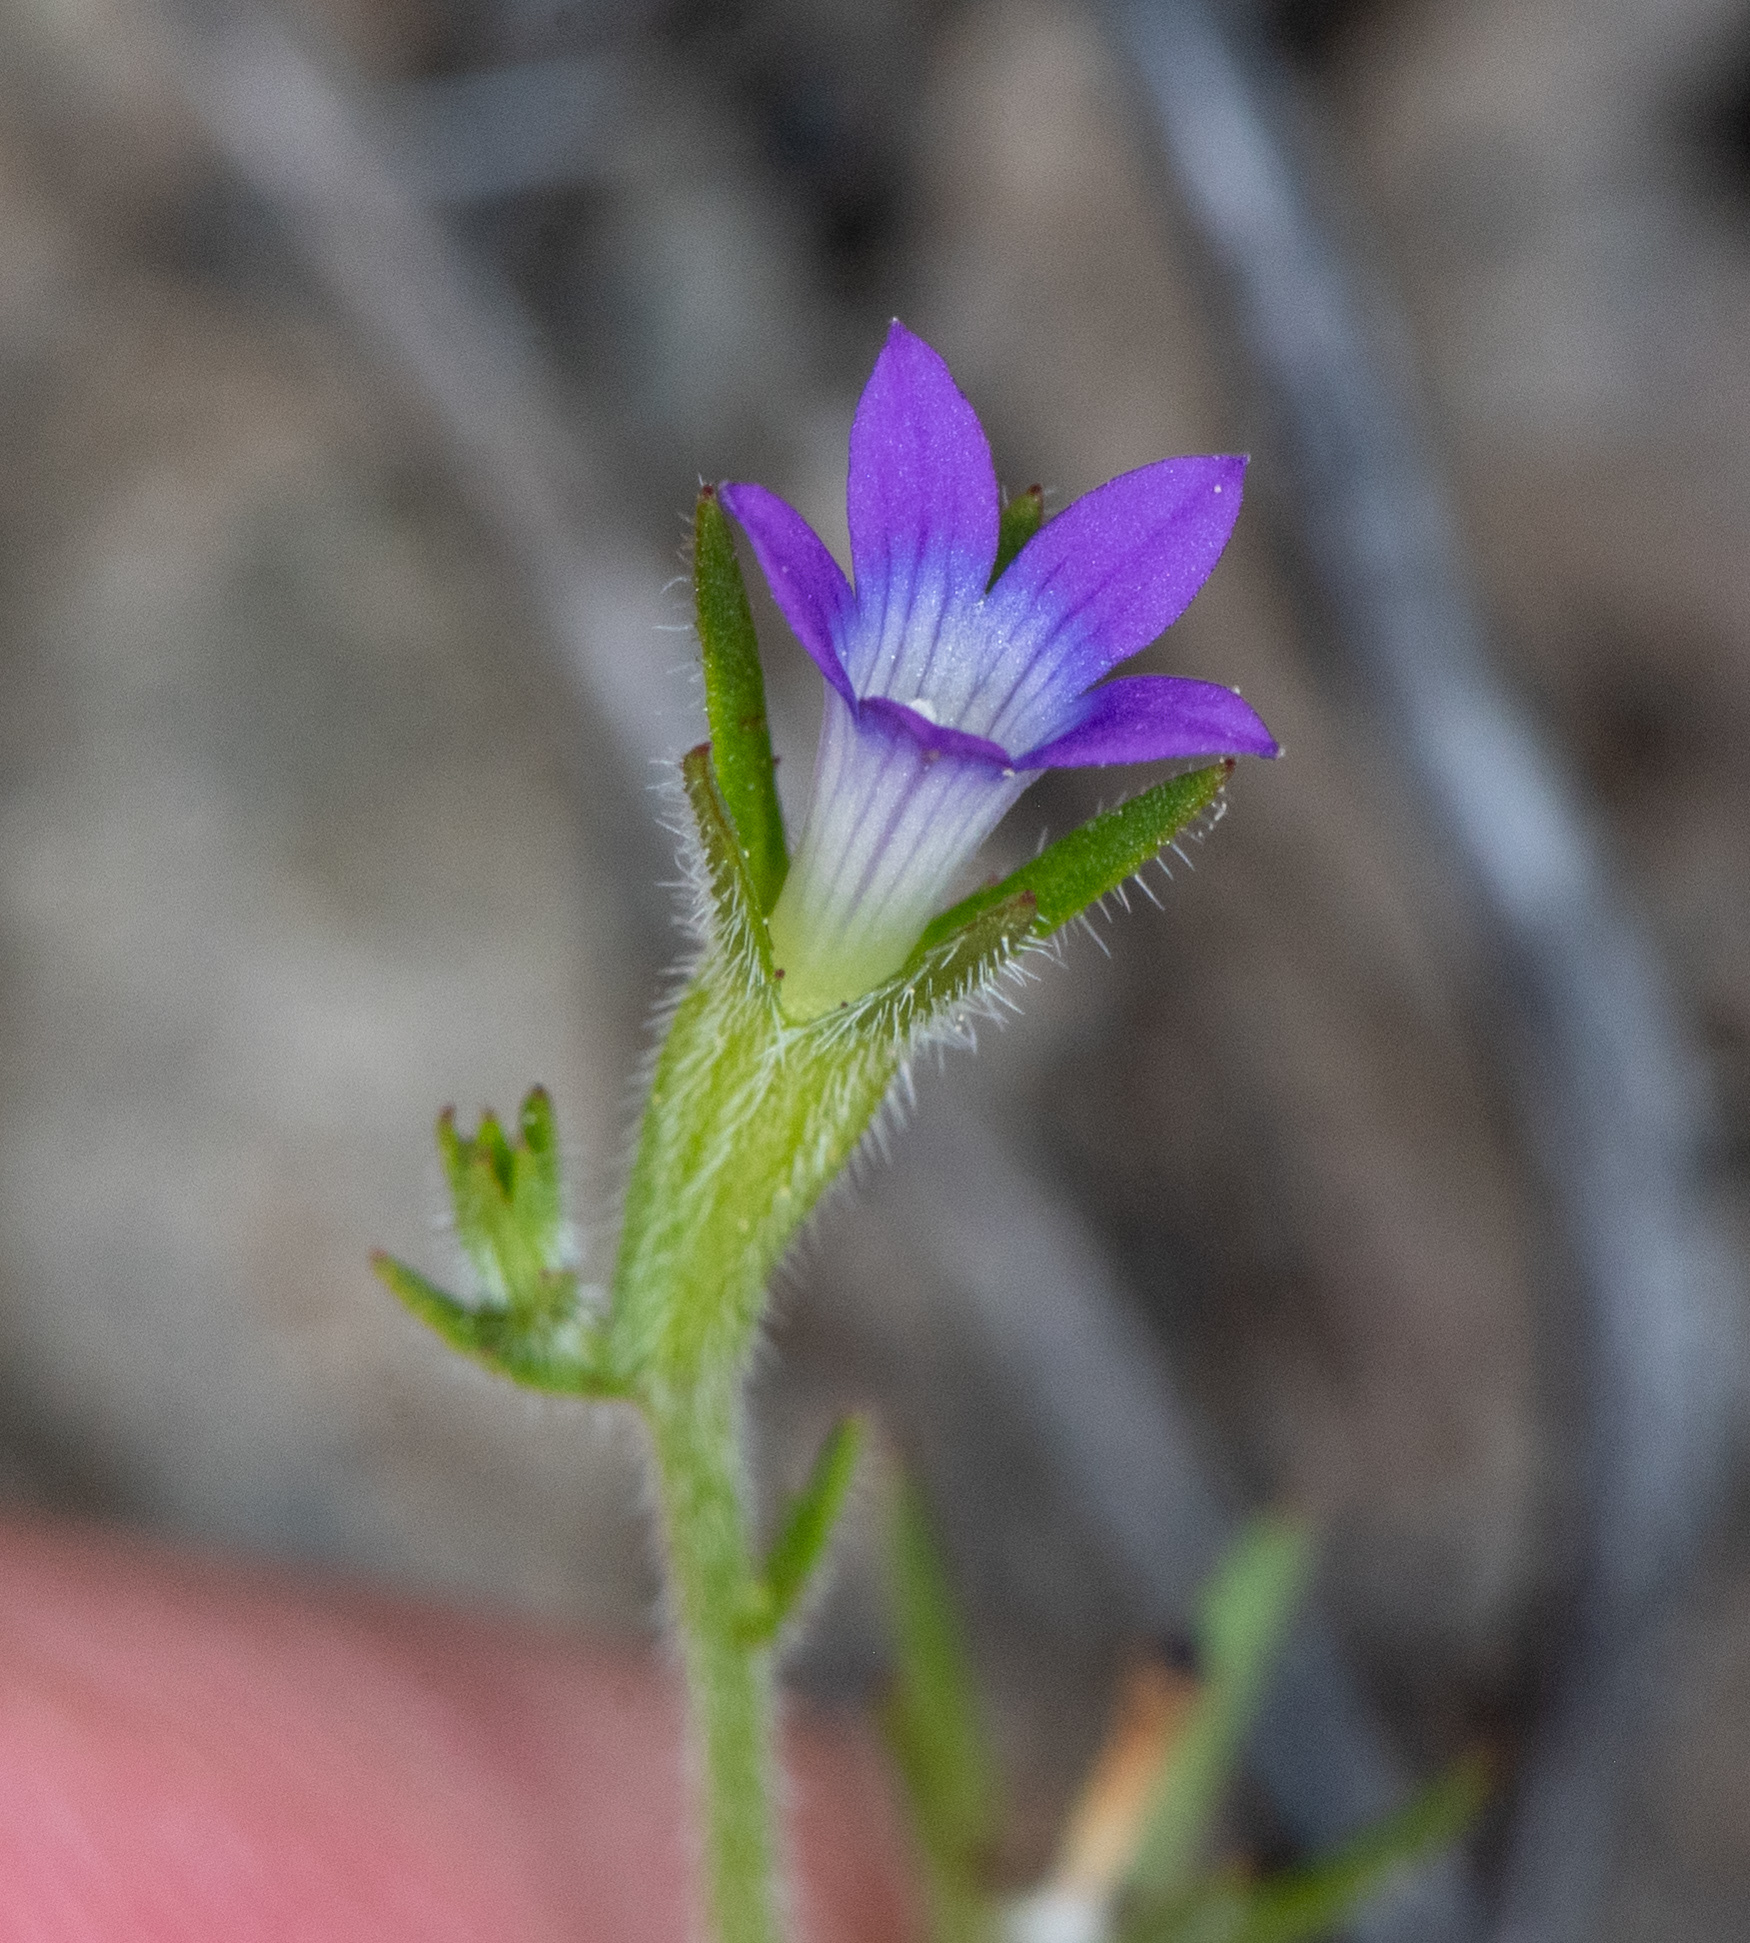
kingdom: Plantae
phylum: Tracheophyta
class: Magnoliopsida
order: Asterales
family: Campanulaceae
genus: Githopsis
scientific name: Githopsis specularioides
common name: Common bluecup
